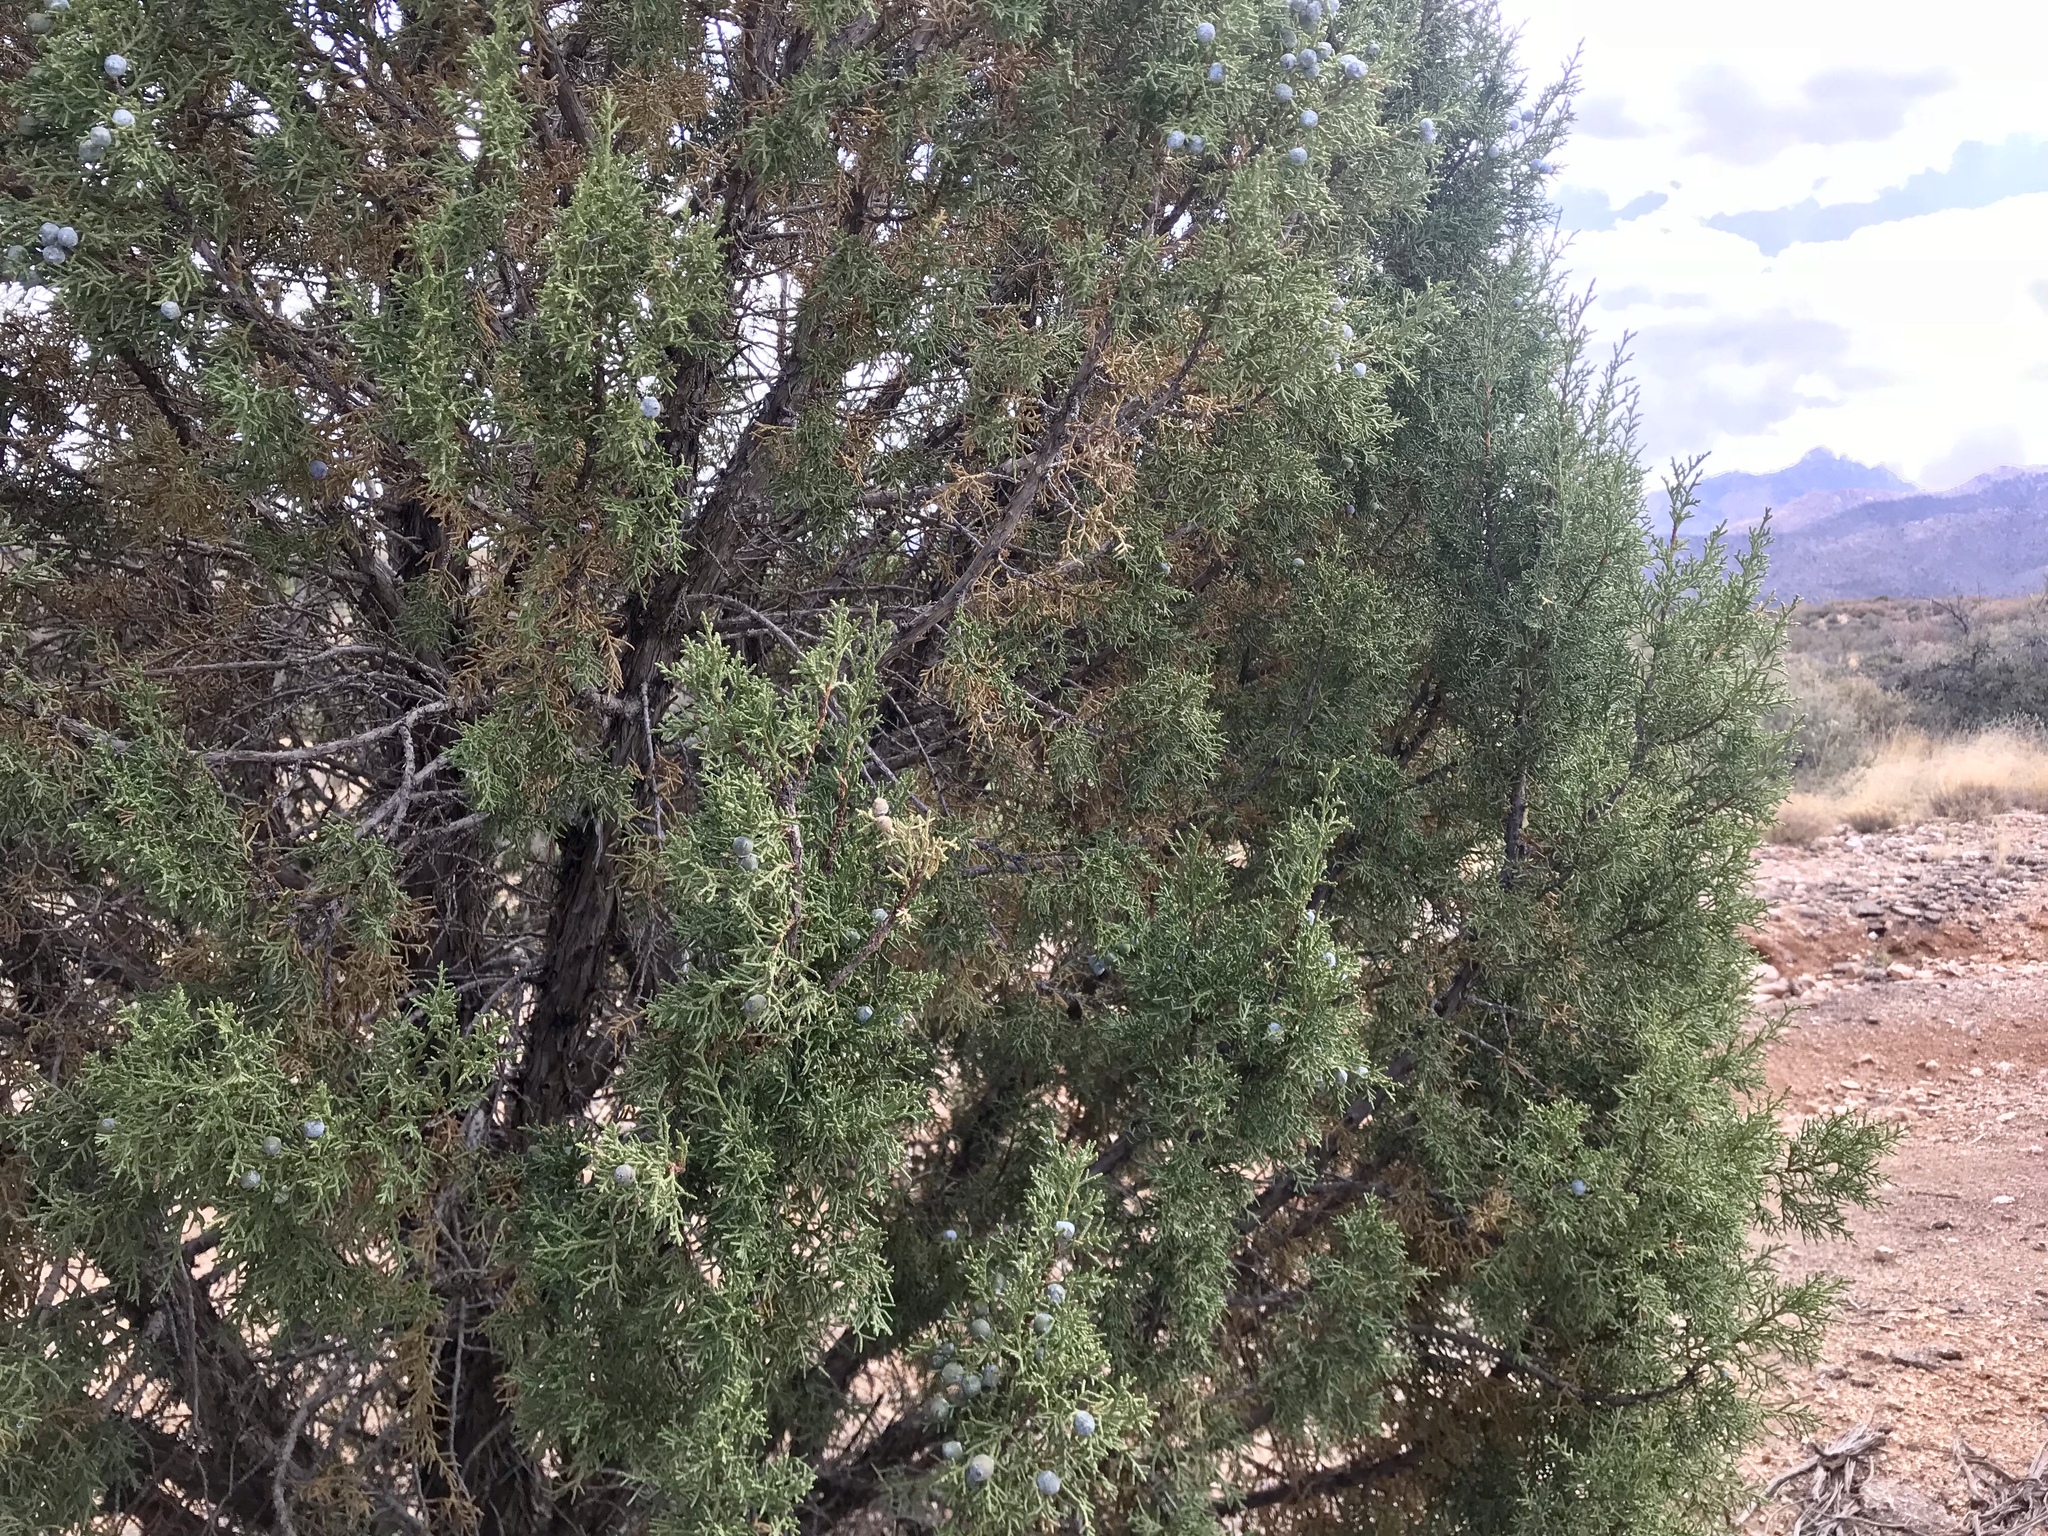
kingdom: Plantae
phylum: Tracheophyta
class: Pinopsida
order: Pinales
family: Cupressaceae
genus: Juniperus
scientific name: Juniperus osteosperma
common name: Utah juniper
